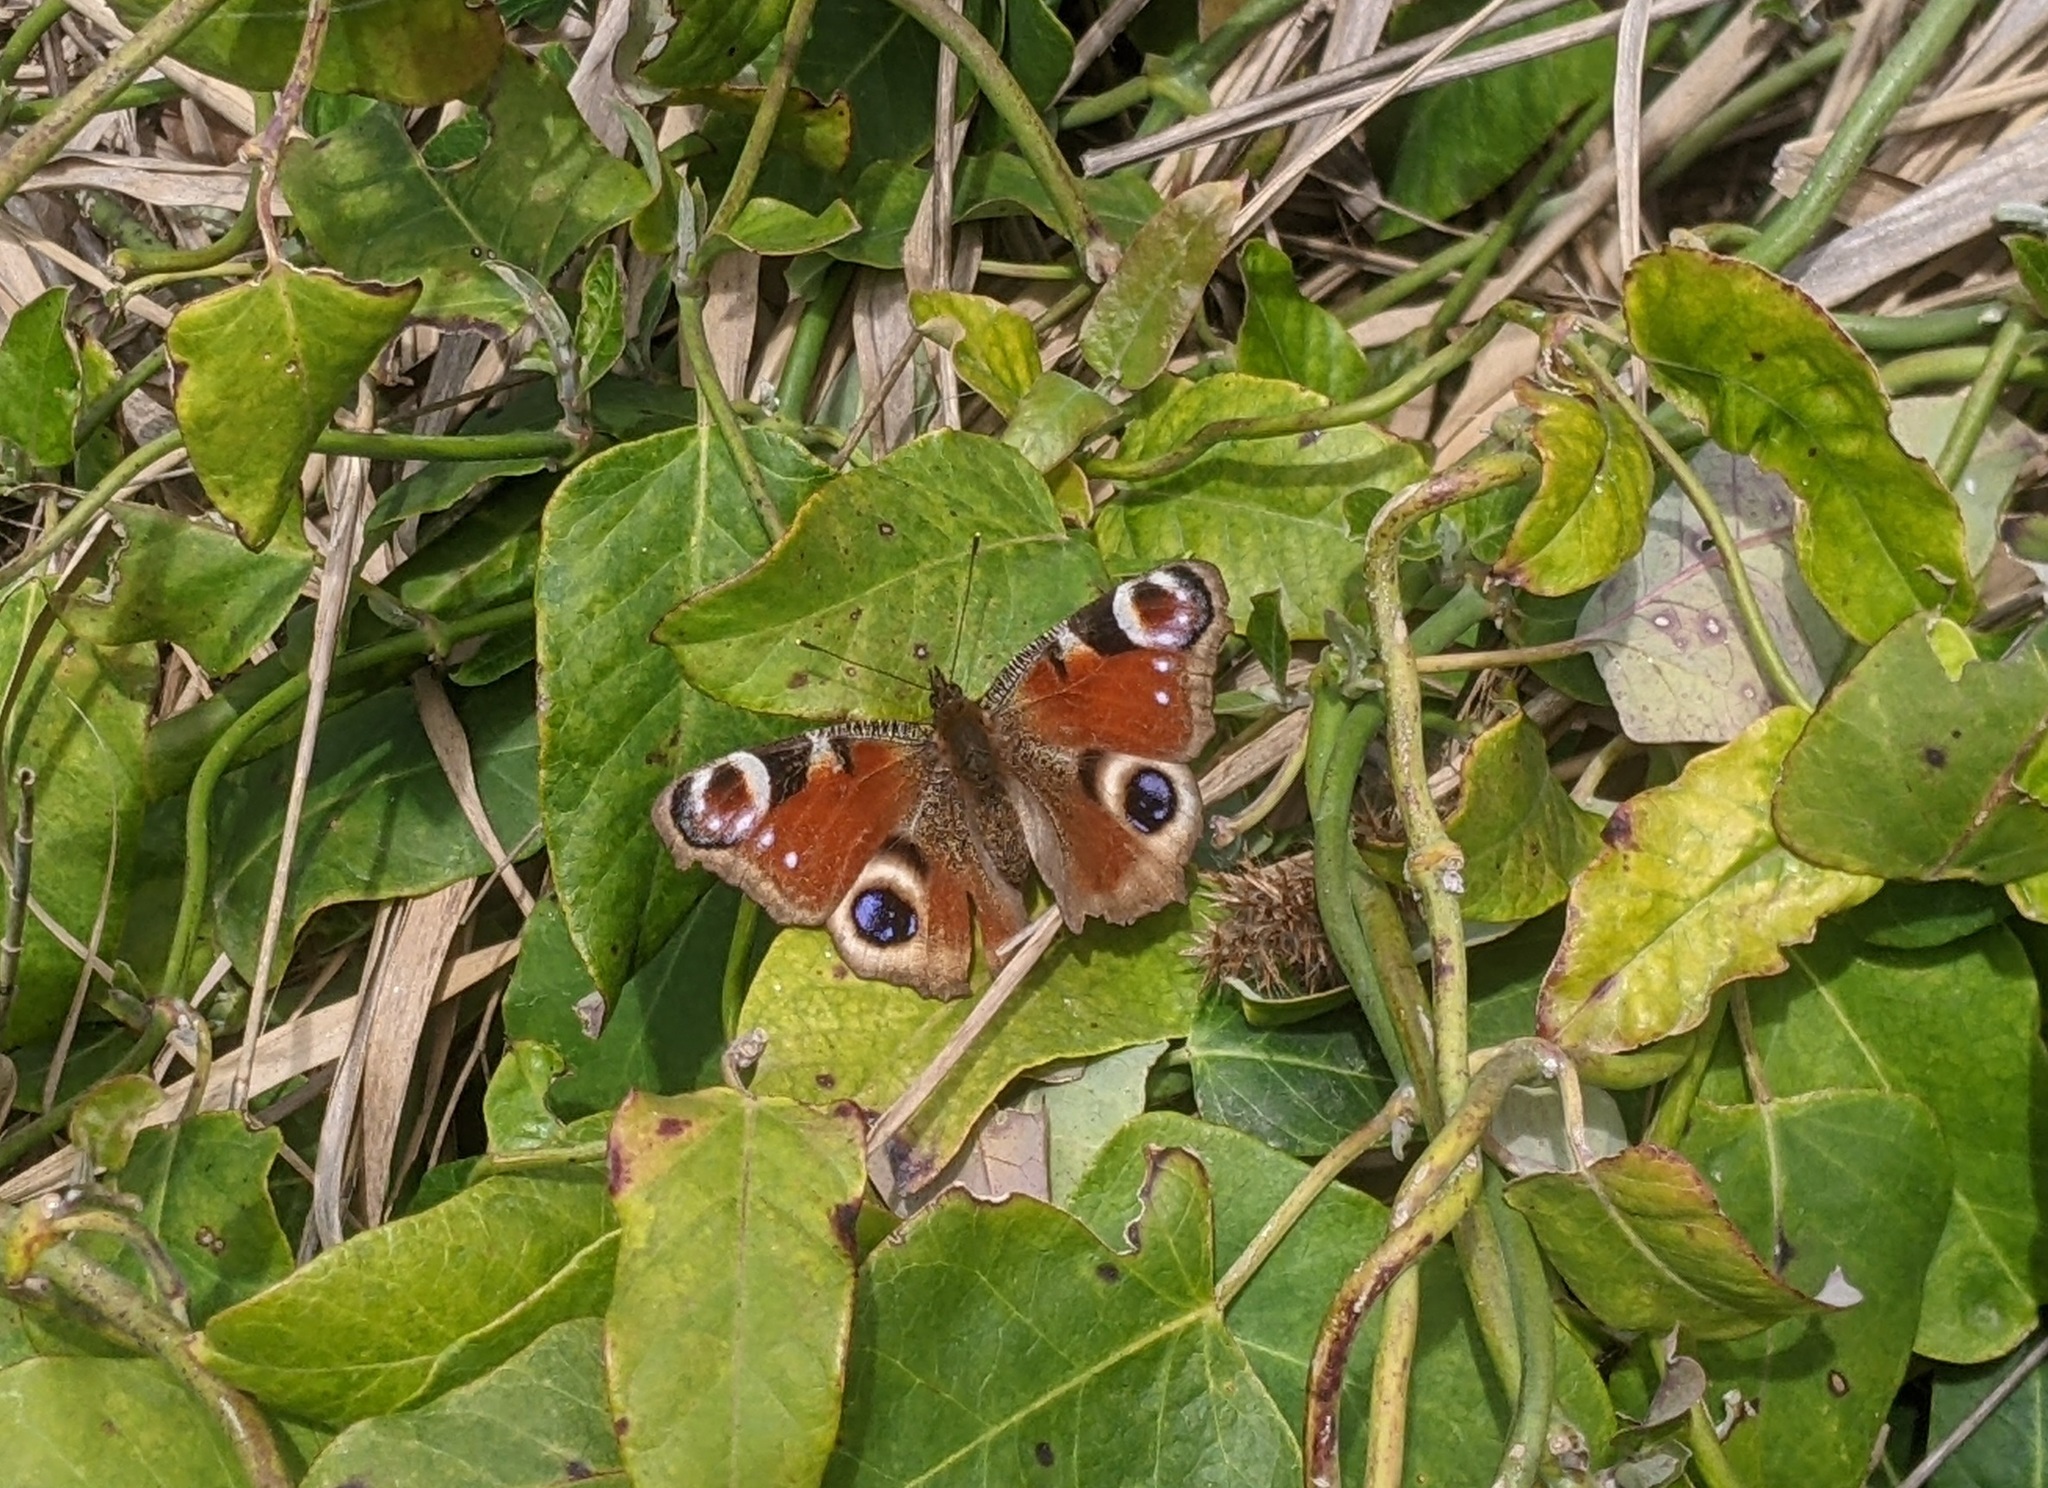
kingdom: Animalia
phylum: Arthropoda
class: Insecta
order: Lepidoptera
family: Nymphalidae
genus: Aglais
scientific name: Aglais io
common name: Peacock
